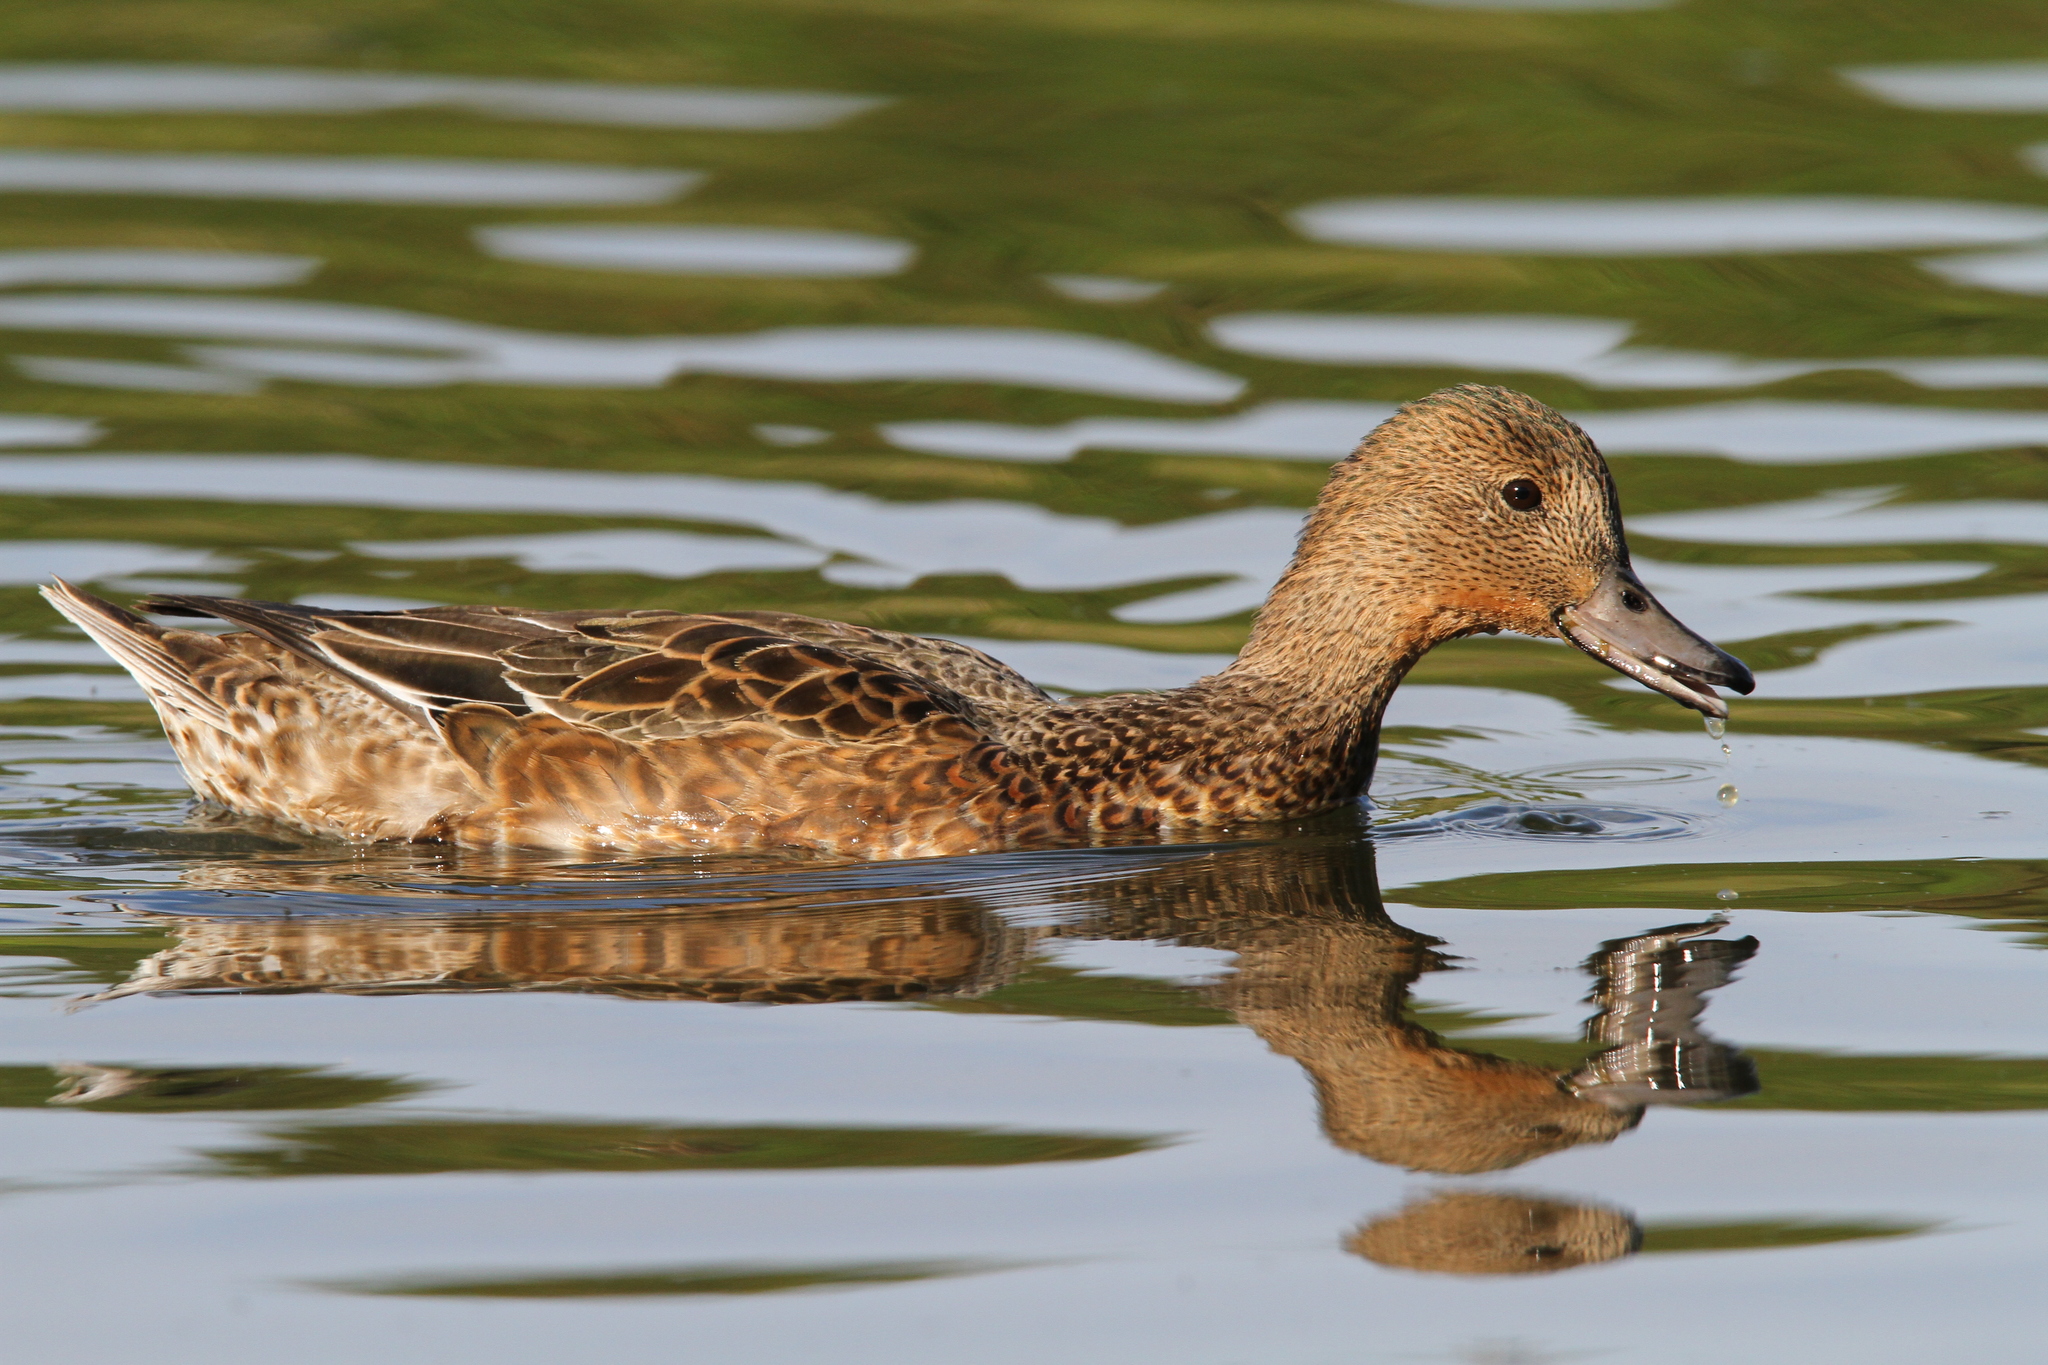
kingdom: Animalia
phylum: Chordata
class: Aves
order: Anseriformes
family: Anatidae
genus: Mareca
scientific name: Mareca penelope
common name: Eurasian wigeon
